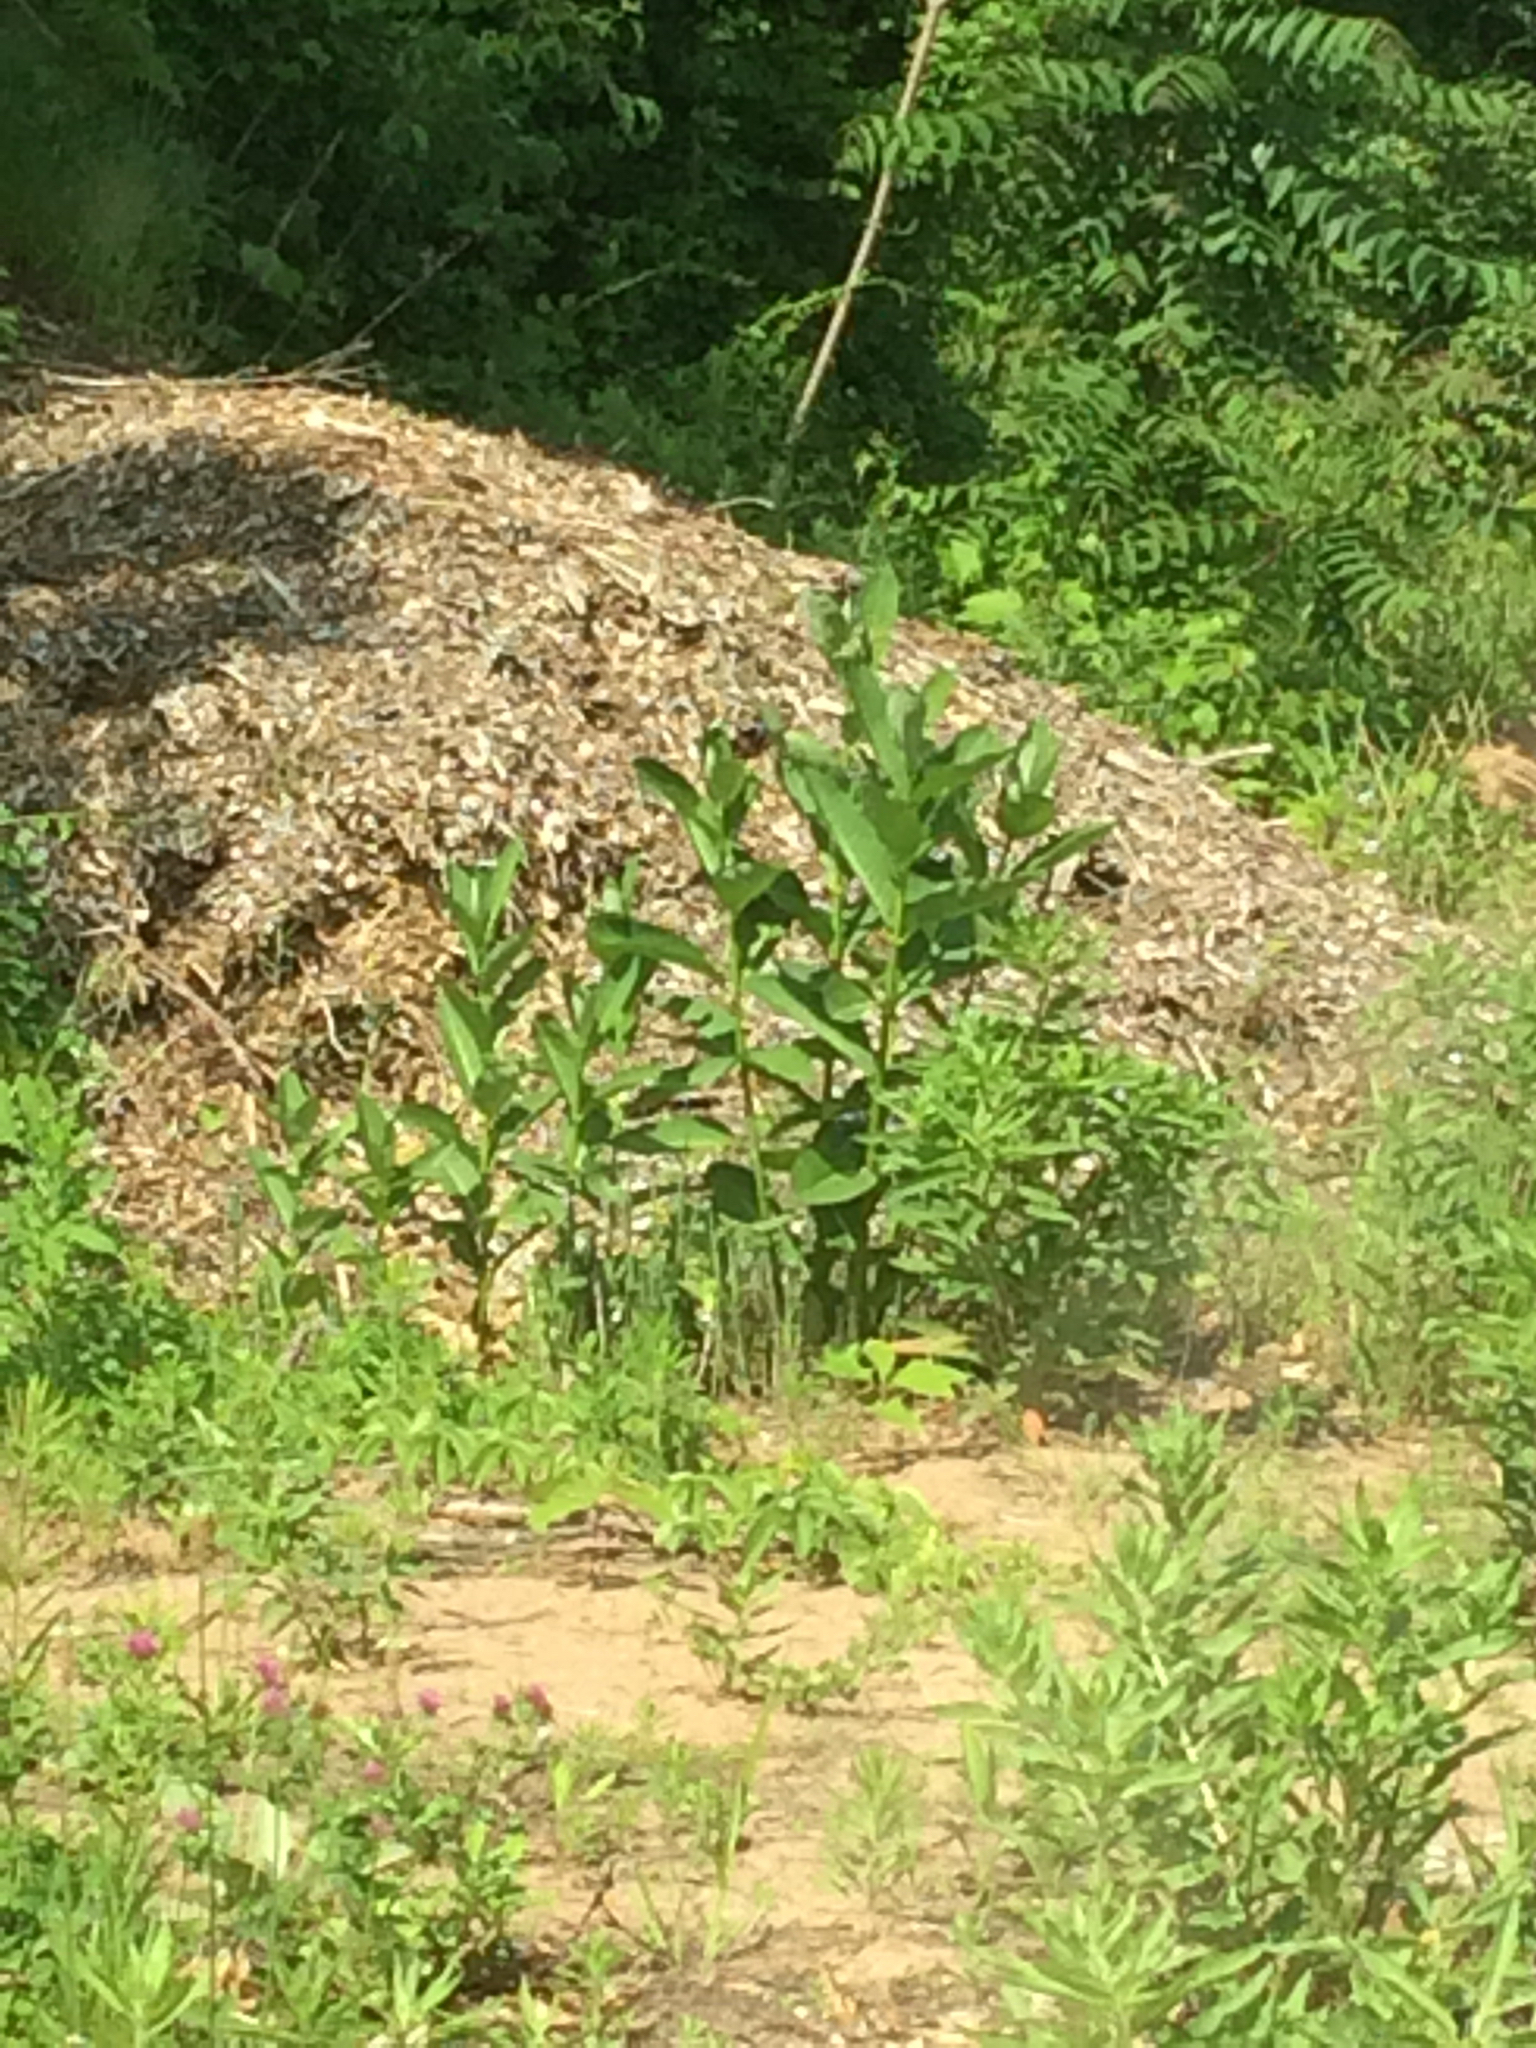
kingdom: Plantae
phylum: Tracheophyta
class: Magnoliopsida
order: Gentianales
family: Apocynaceae
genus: Asclepias
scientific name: Asclepias syriaca
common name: Common milkweed
